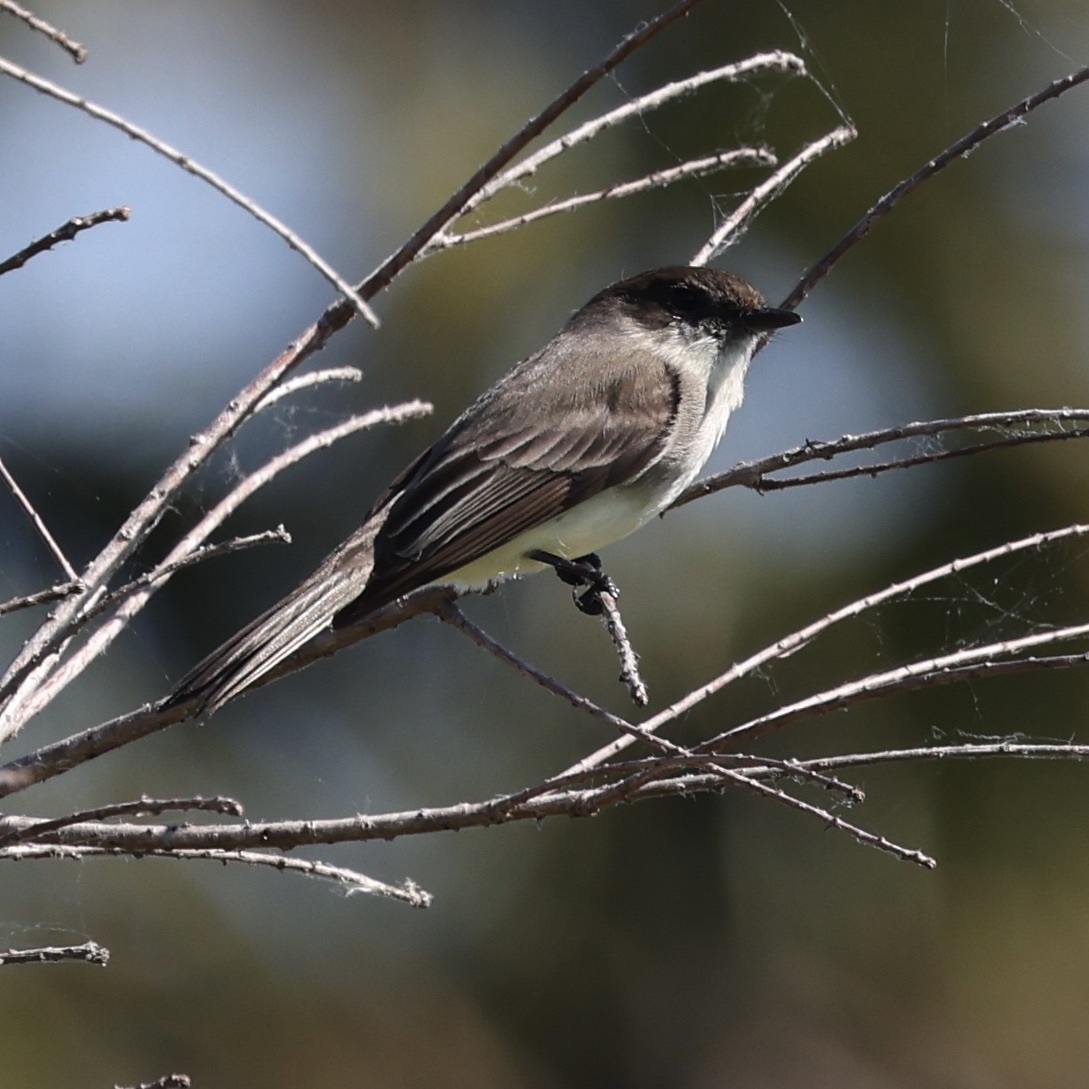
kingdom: Animalia
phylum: Chordata
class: Aves
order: Passeriformes
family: Tyrannidae
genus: Sayornis
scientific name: Sayornis phoebe
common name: Eastern phoebe
